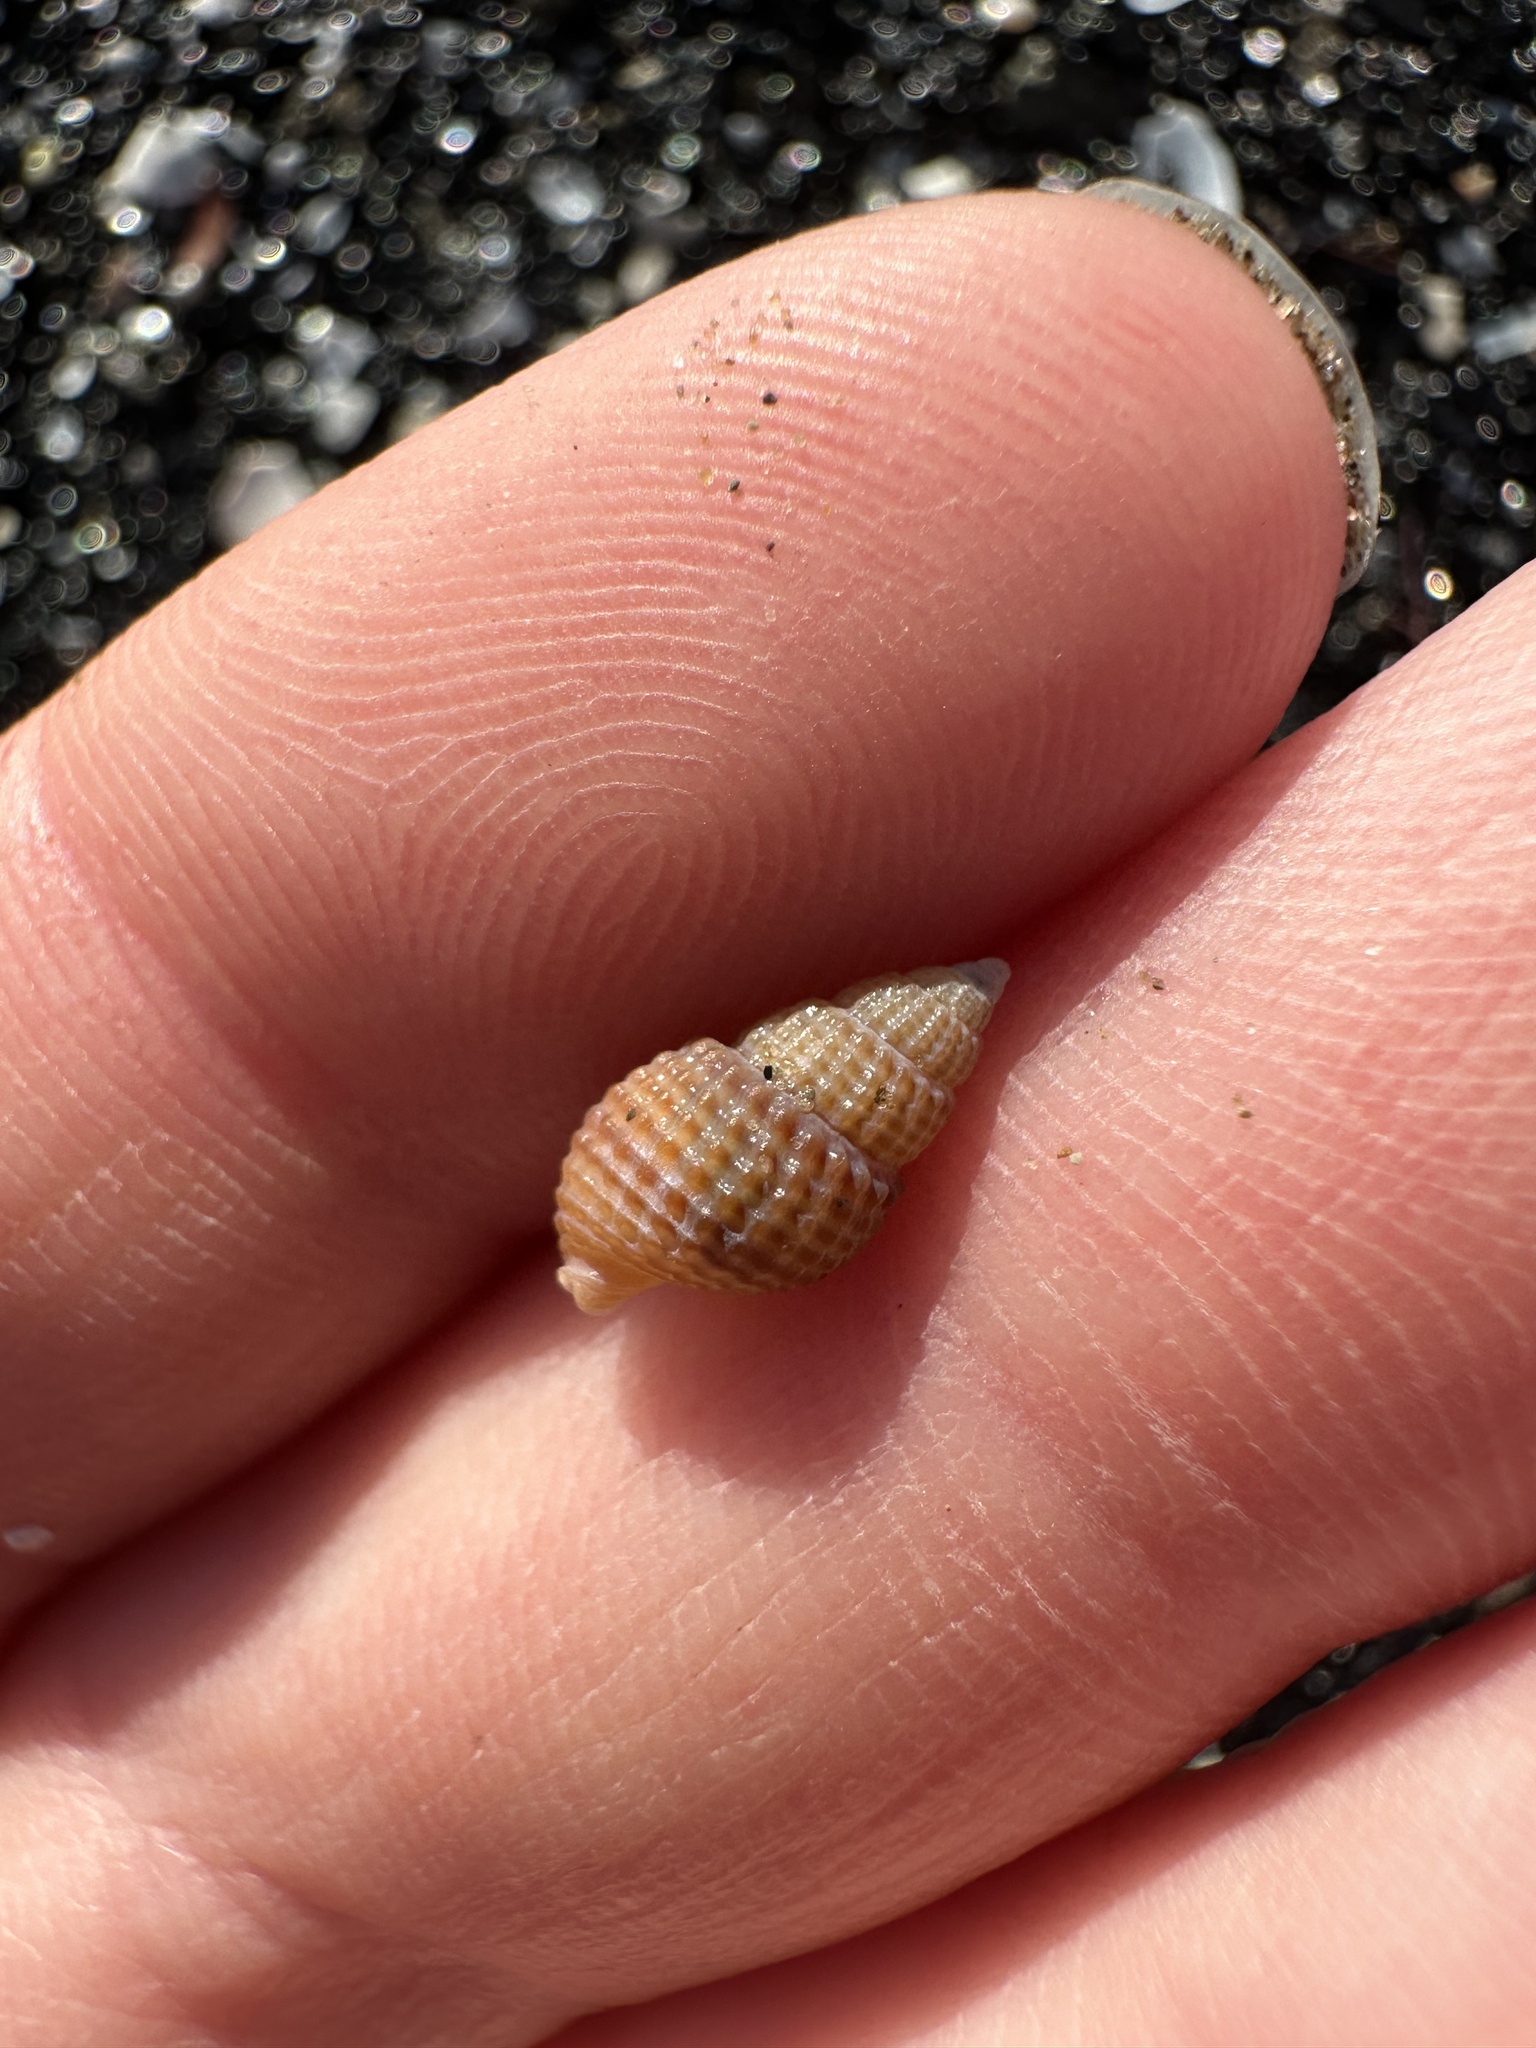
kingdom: Animalia
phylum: Mollusca
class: Gastropoda
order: Neogastropoda
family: Nassariidae
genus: Ilyanassa
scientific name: Ilyanassa trivittata
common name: Three-line mudsnail
